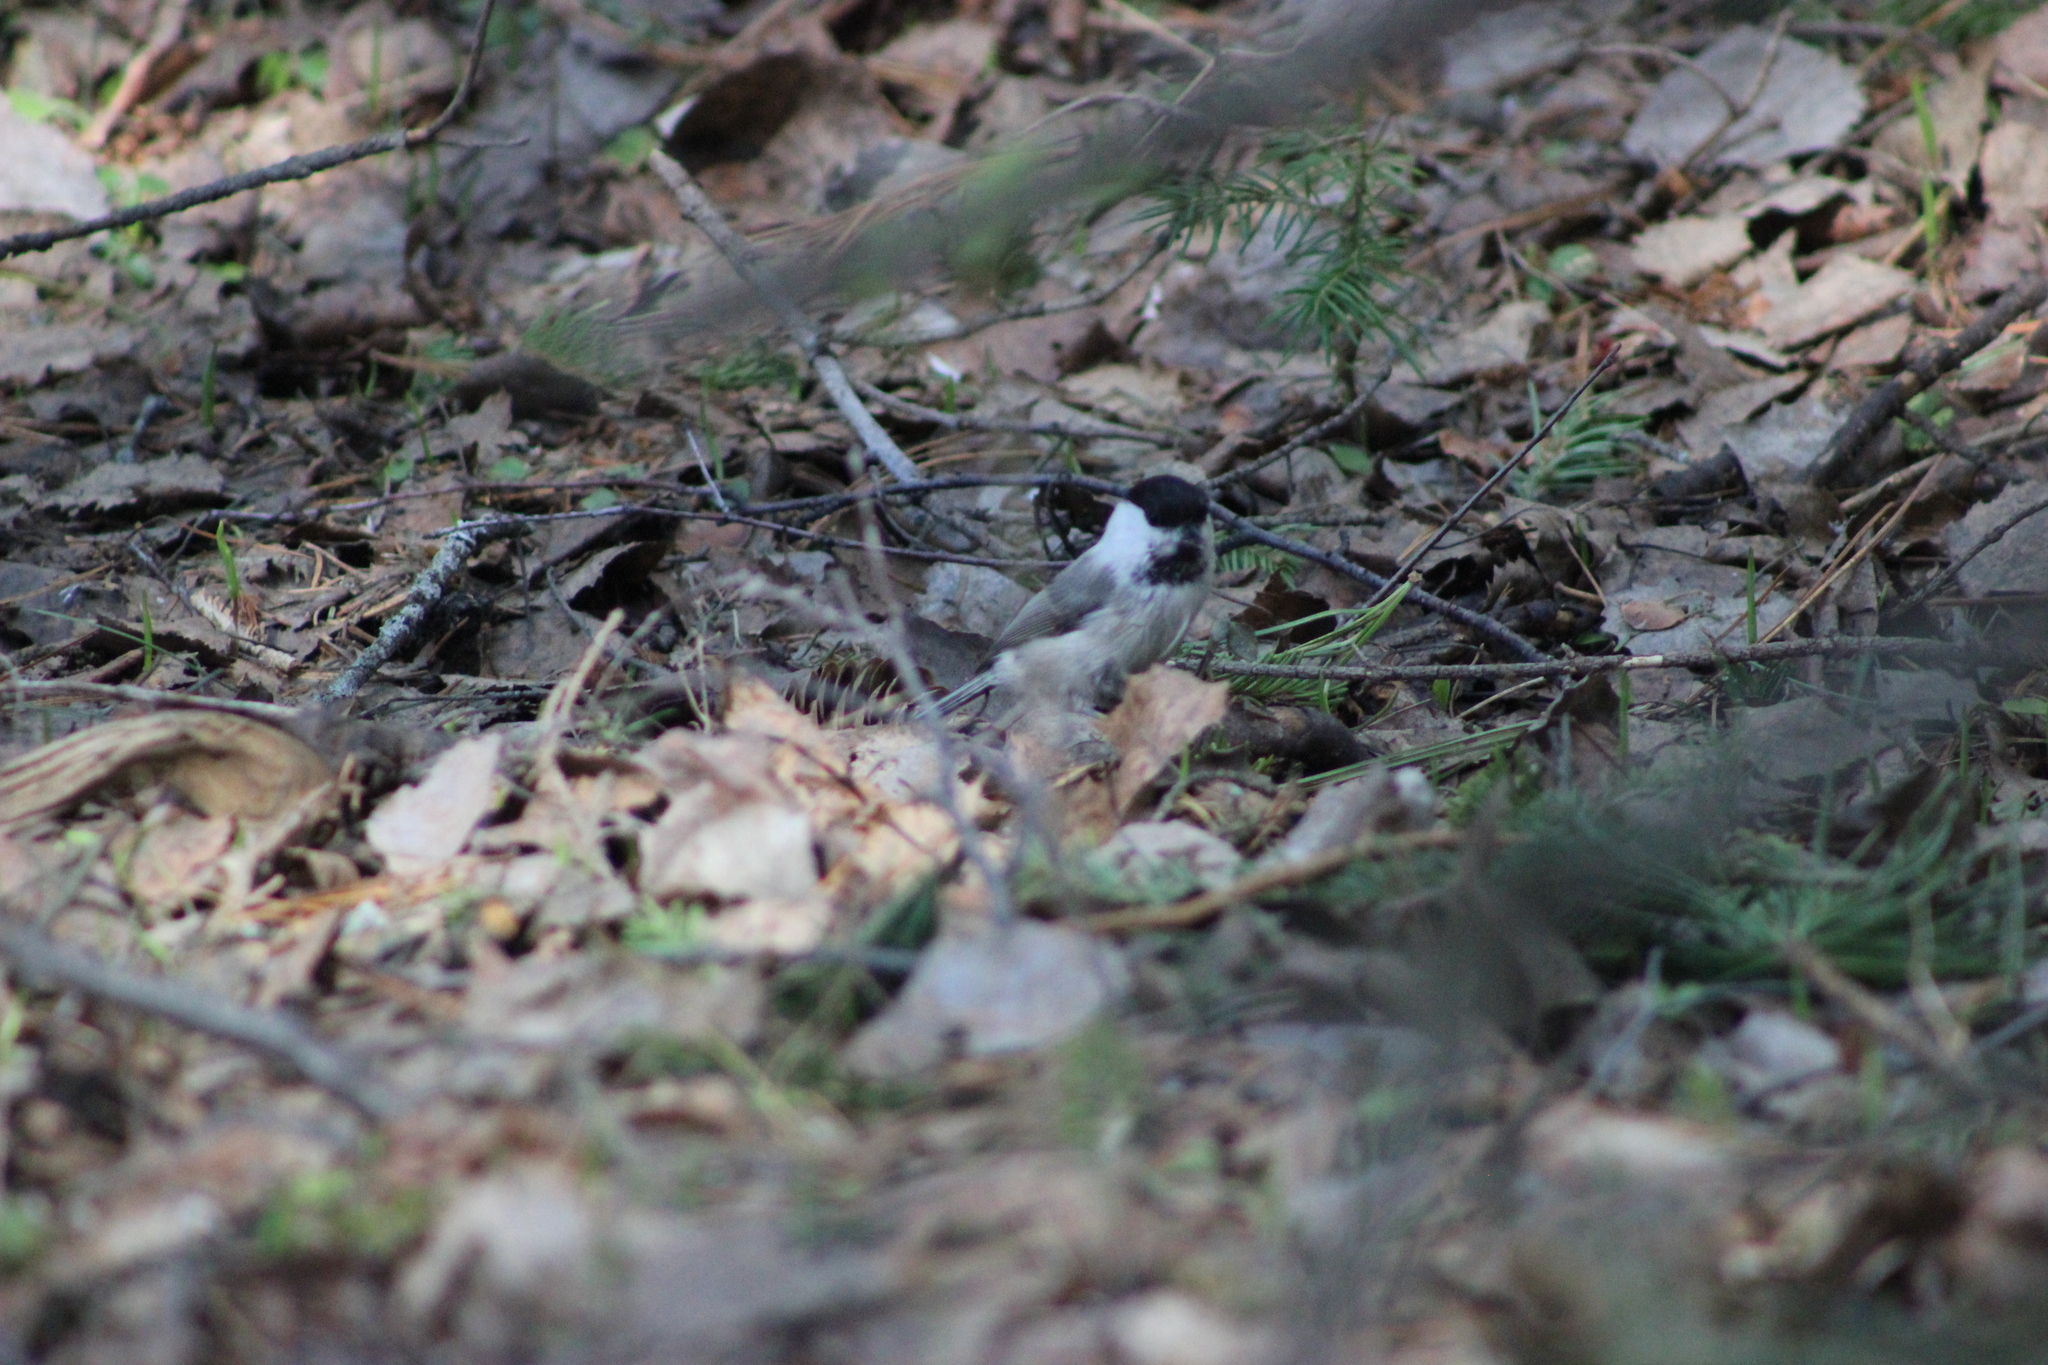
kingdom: Animalia
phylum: Chordata
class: Aves
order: Passeriformes
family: Paridae
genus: Poecile
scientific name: Poecile montanus
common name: Willow tit
